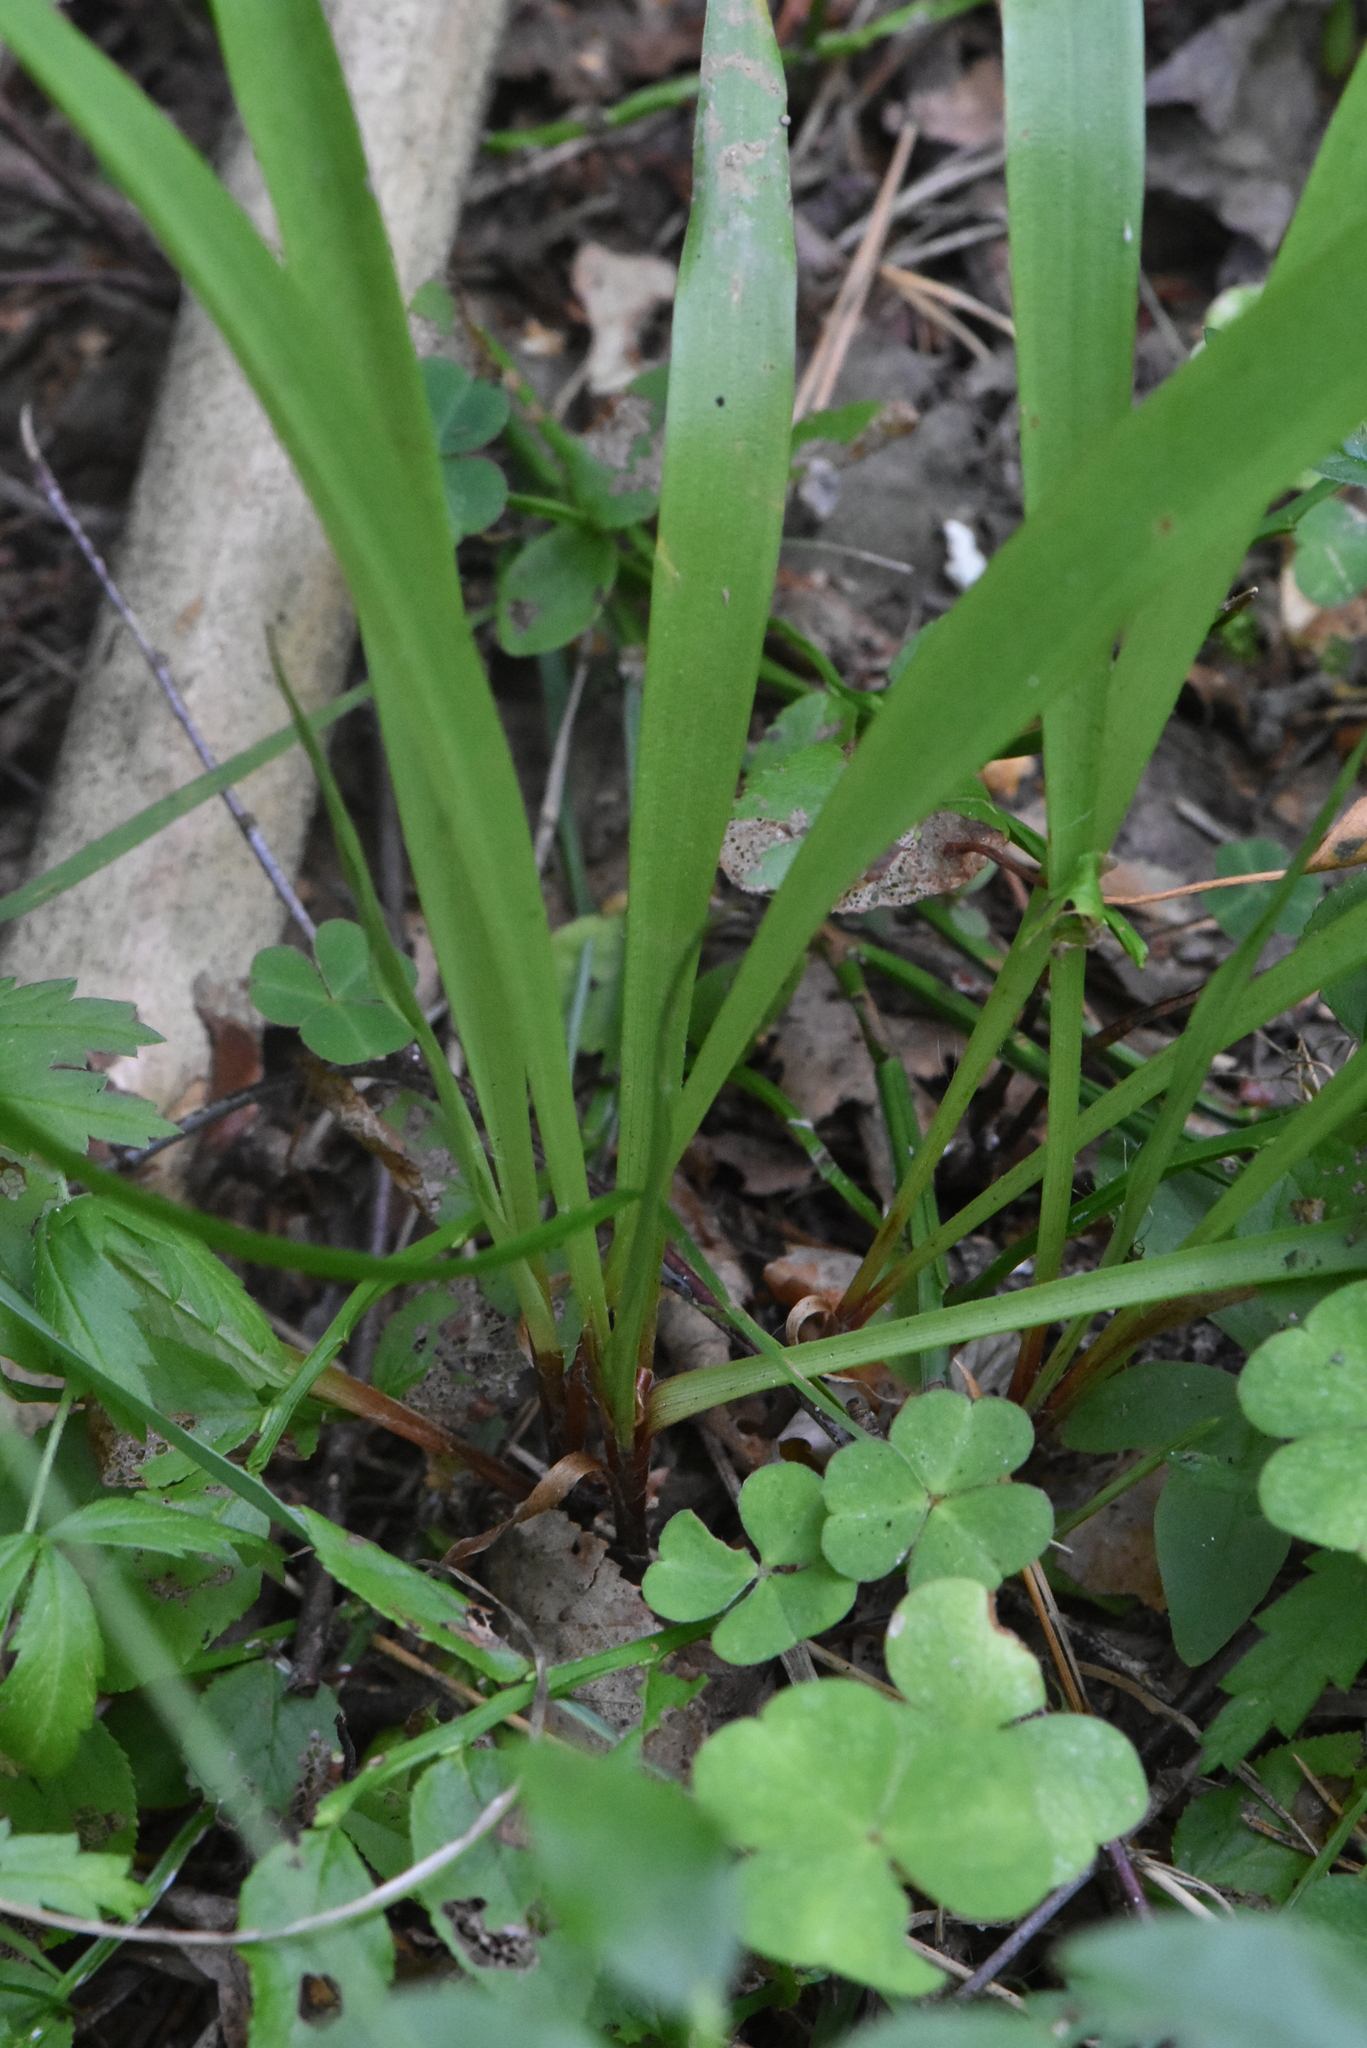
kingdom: Plantae
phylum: Tracheophyta
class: Liliopsida
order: Poales
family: Juncaceae
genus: Luzula
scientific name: Luzula pilosa
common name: Hairy wood-rush
